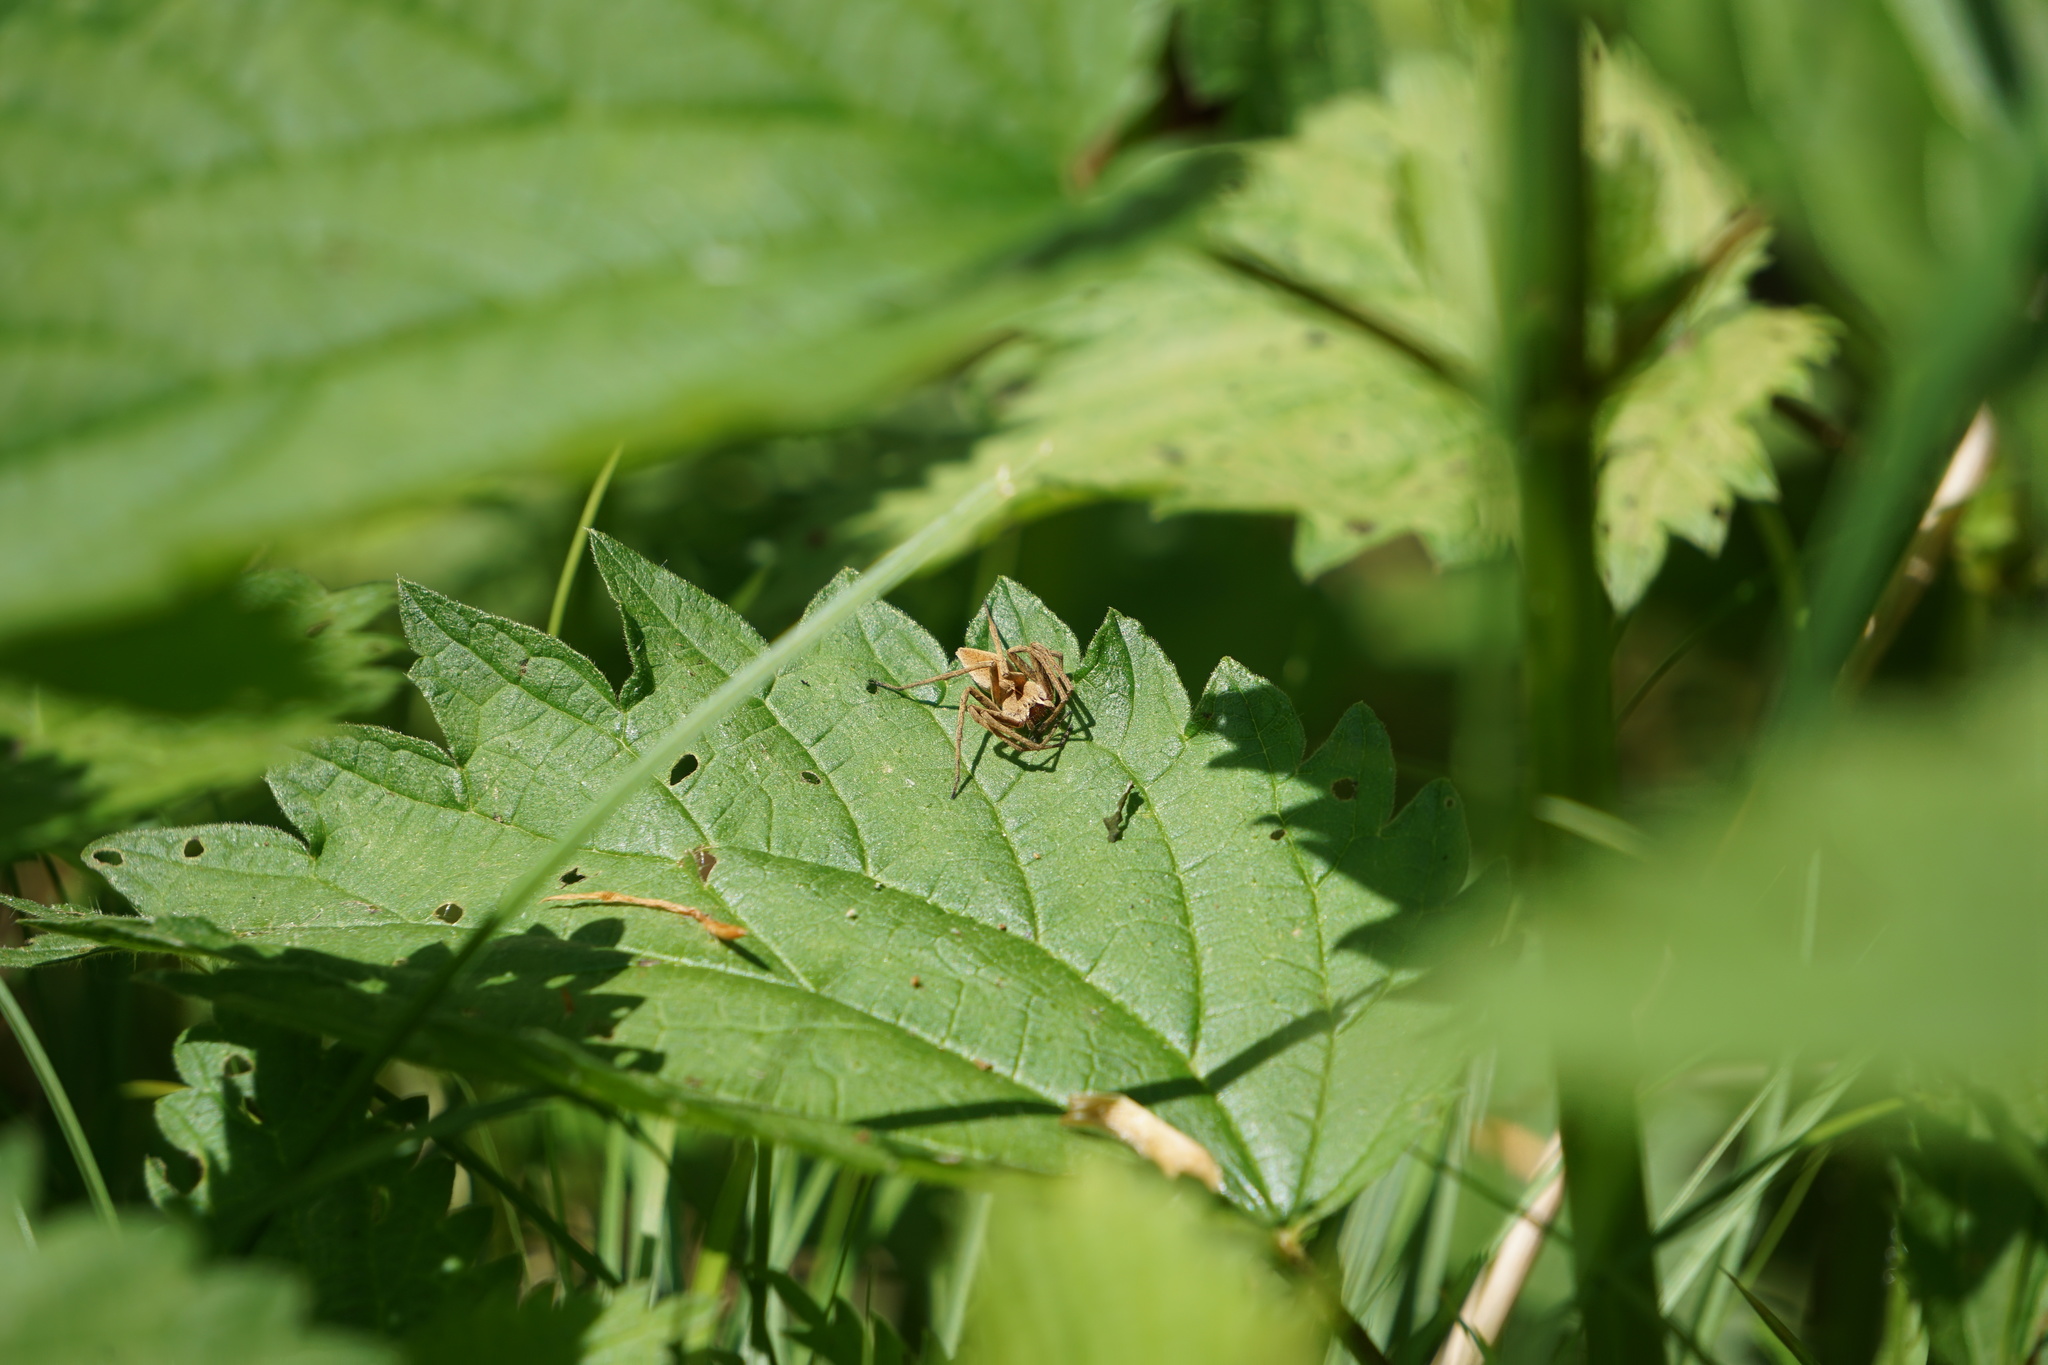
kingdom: Animalia
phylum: Arthropoda
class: Arachnida
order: Araneae
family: Pisauridae
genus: Pisaura
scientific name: Pisaura mirabilis
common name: Tent spider
